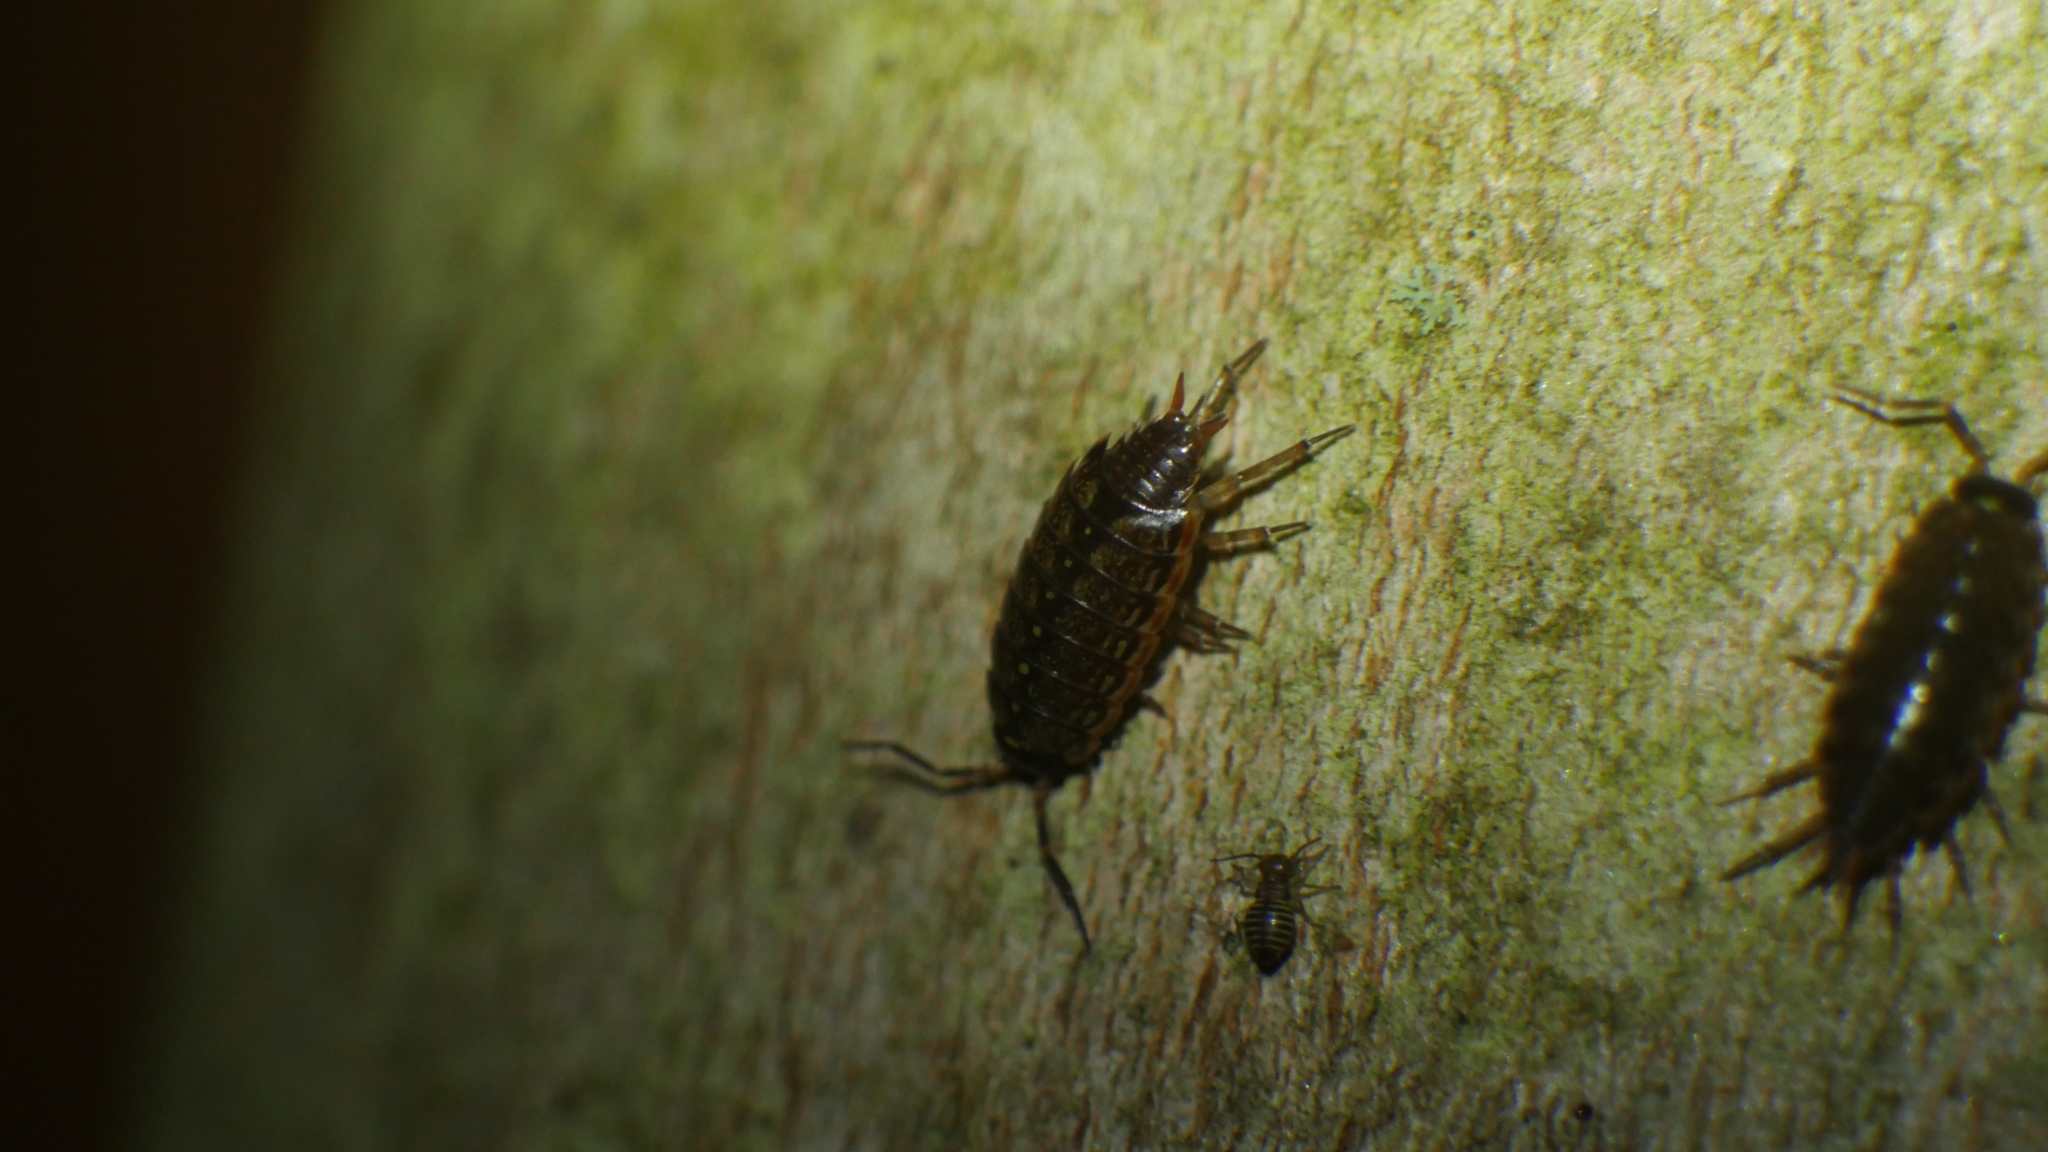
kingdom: Animalia
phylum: Arthropoda
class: Malacostraca
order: Isopoda
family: Philosciidae
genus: Philoscia
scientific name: Philoscia muscorum
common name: Common striped woodlouse
